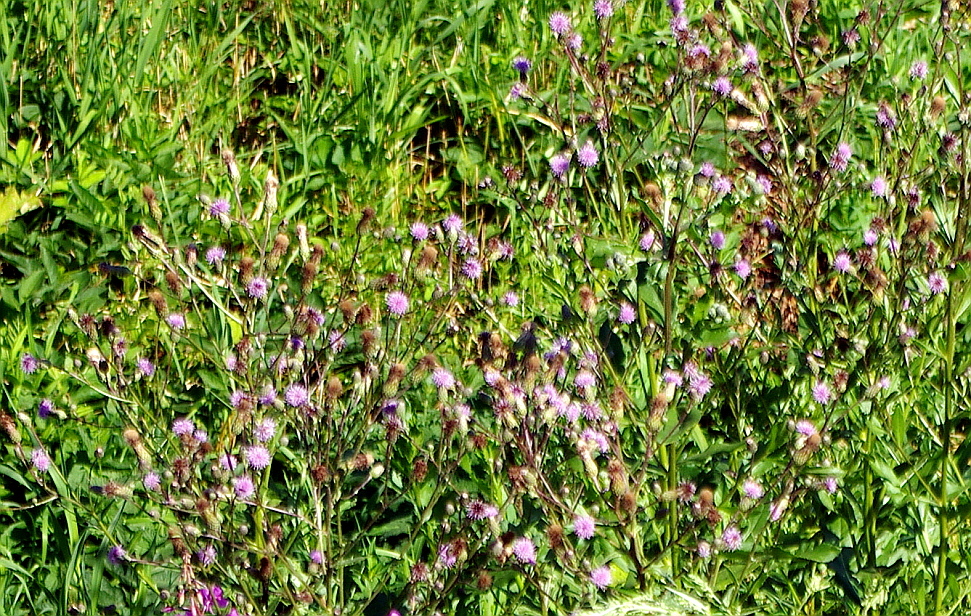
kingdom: Plantae
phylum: Tracheophyta
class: Magnoliopsida
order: Asterales
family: Asteraceae
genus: Cirsium
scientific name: Cirsium arvense
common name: Creeping thistle
